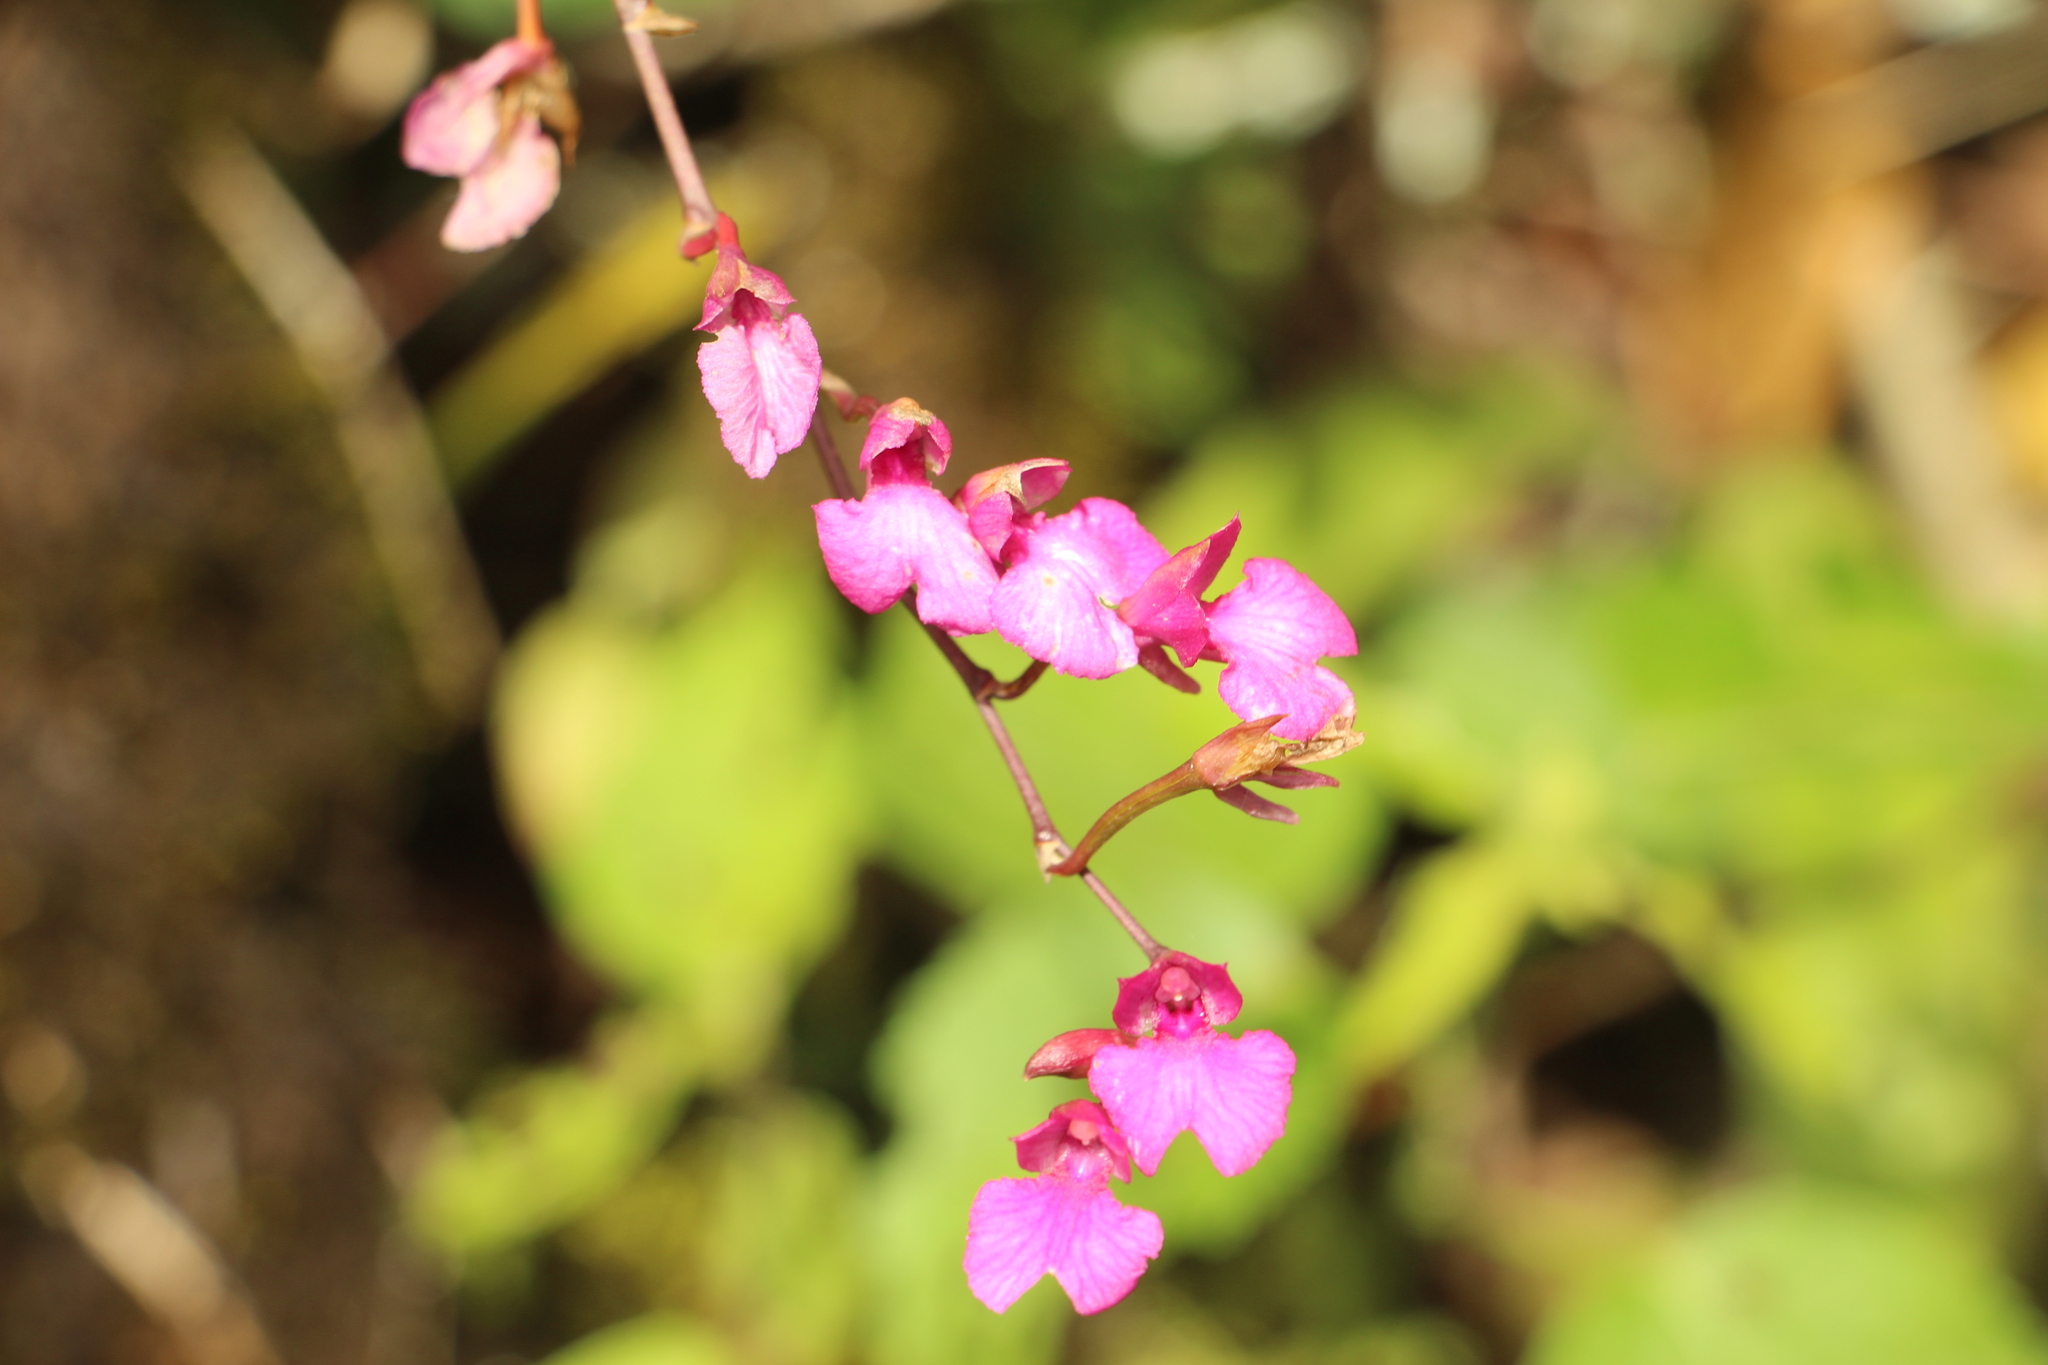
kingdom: Plantae
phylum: Tracheophyta
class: Liliopsida
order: Asparagales
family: Orchidaceae
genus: Comparettia
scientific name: Comparettia falcata
